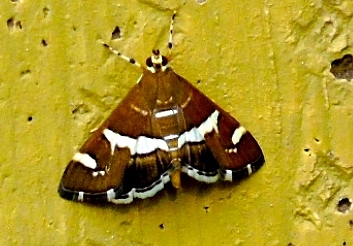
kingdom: Animalia
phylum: Arthropoda
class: Insecta
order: Lepidoptera
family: Crambidae
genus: Spoladea
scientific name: Spoladea recurvalis
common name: Beet webworm moth
